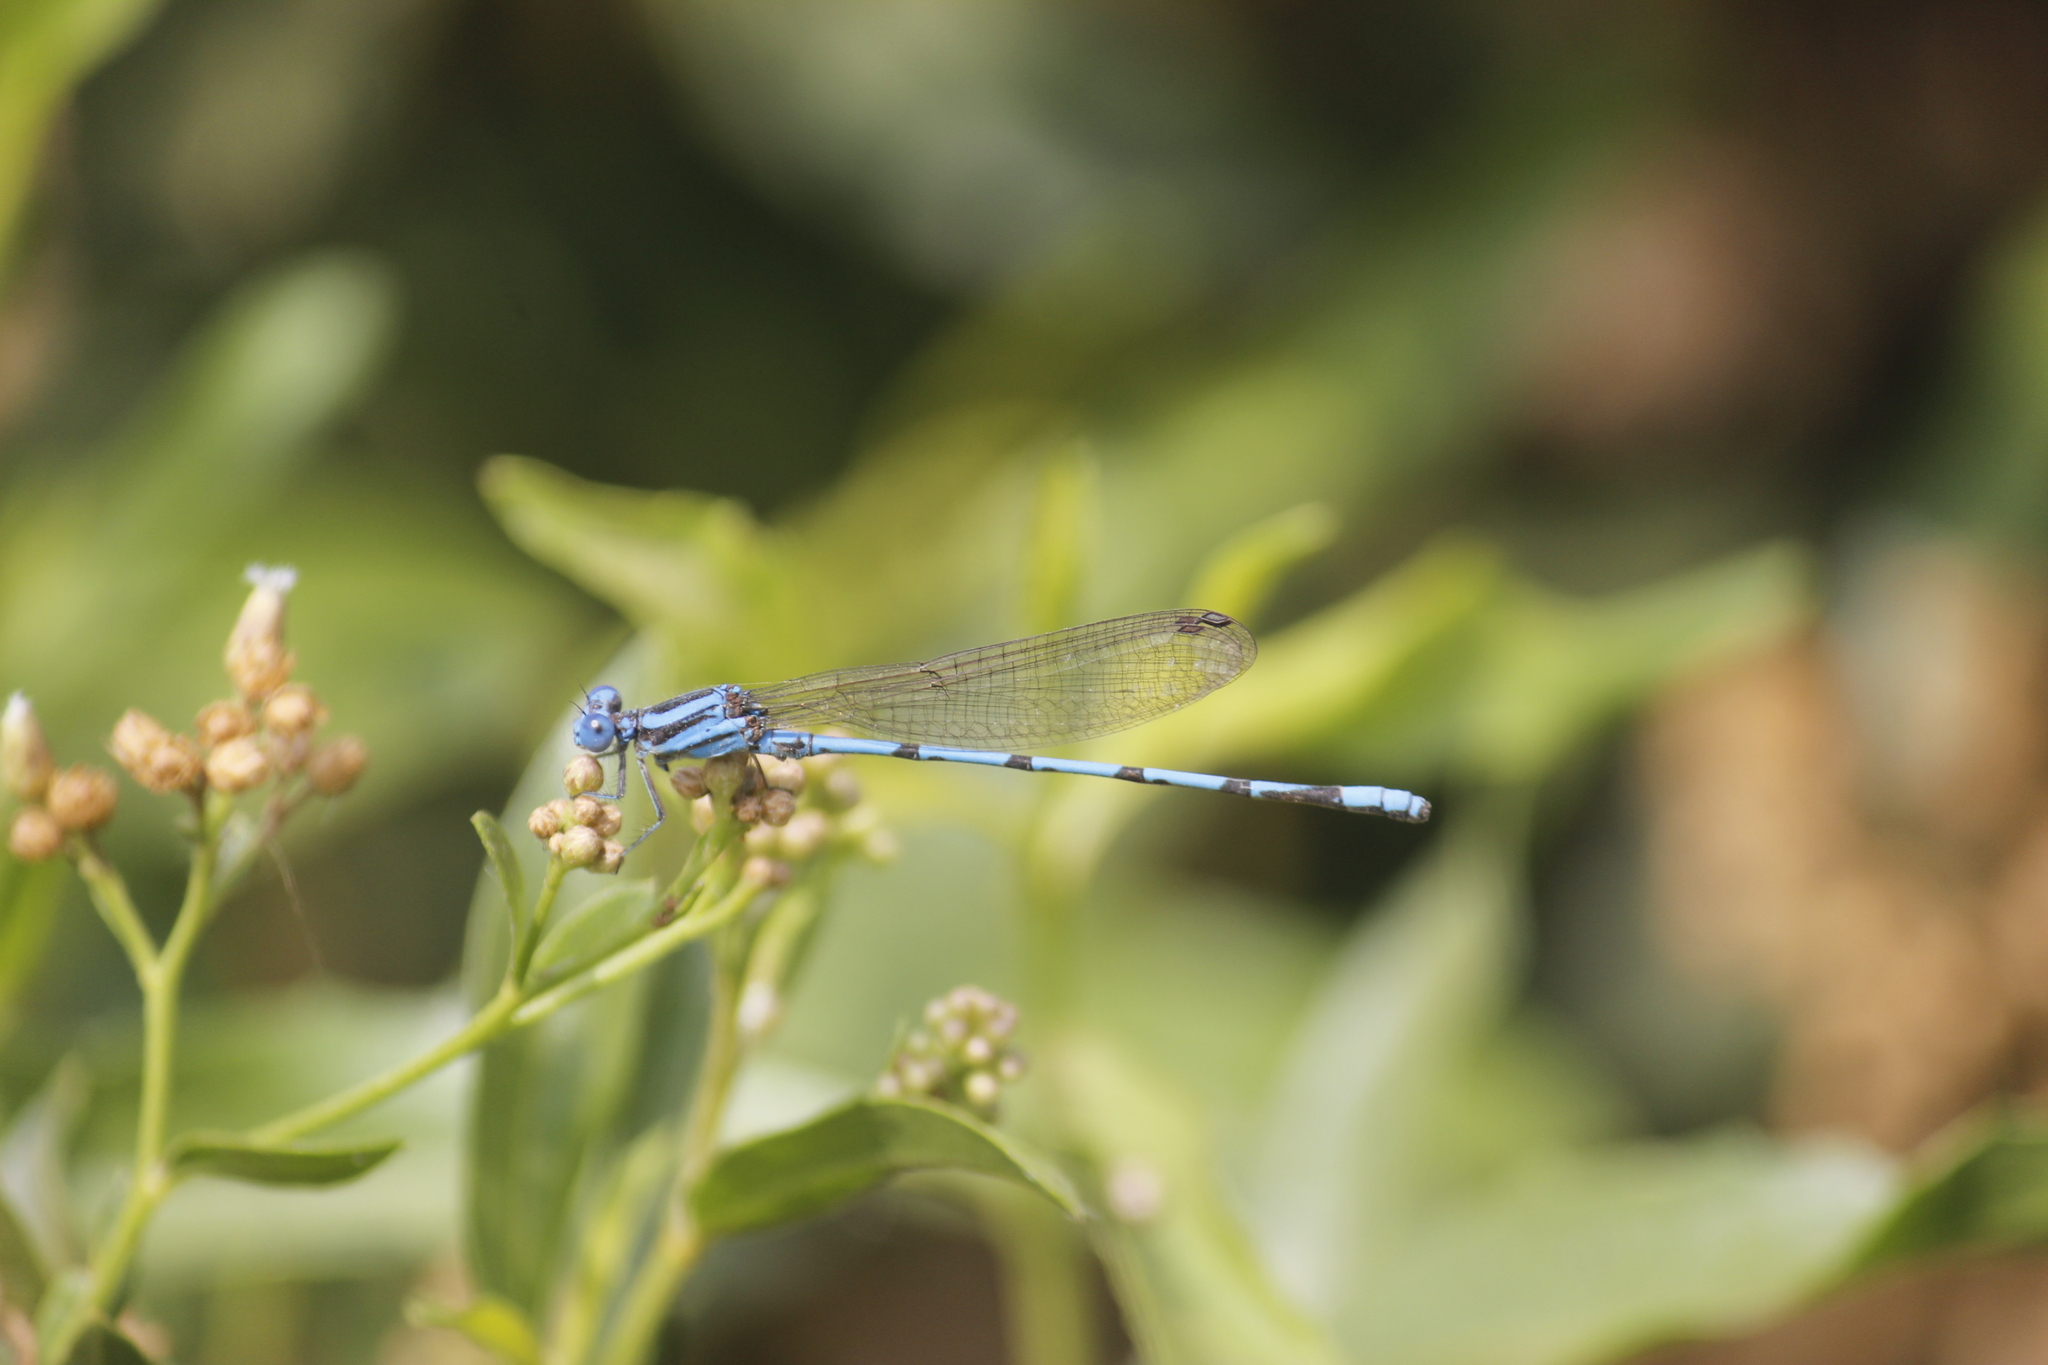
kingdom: Animalia
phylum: Arthropoda
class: Insecta
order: Odonata
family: Coenagrionidae
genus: Argia
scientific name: Argia inculta
